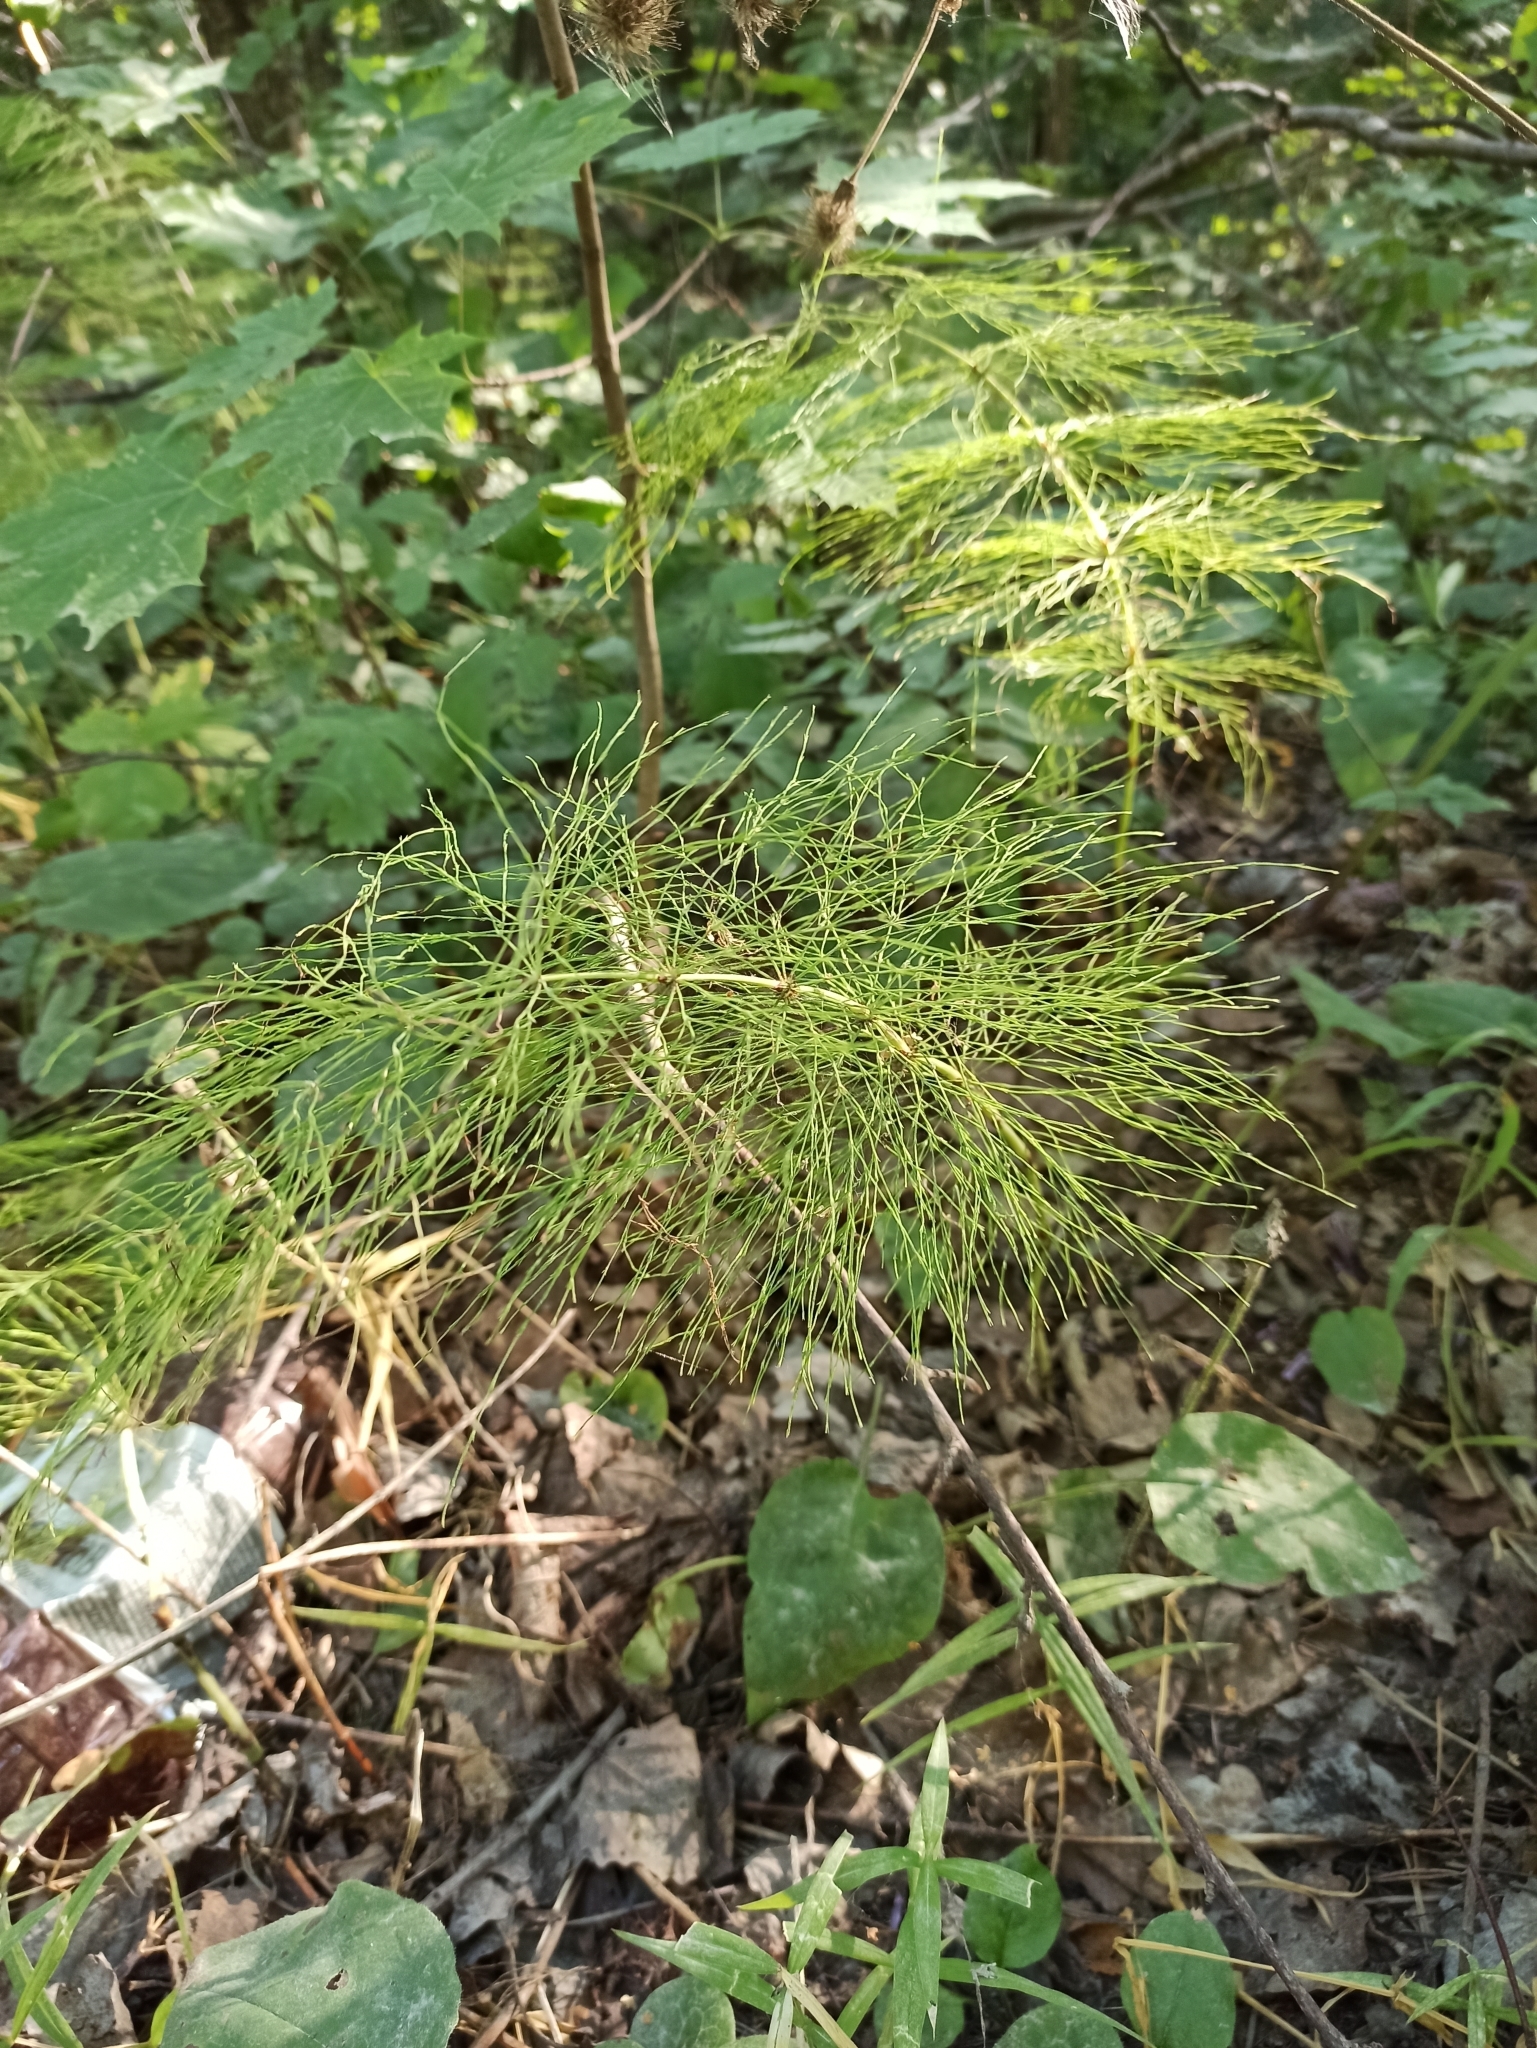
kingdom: Plantae
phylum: Tracheophyta
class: Polypodiopsida
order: Equisetales
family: Equisetaceae
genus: Equisetum
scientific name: Equisetum sylvaticum
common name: Wood horsetail
